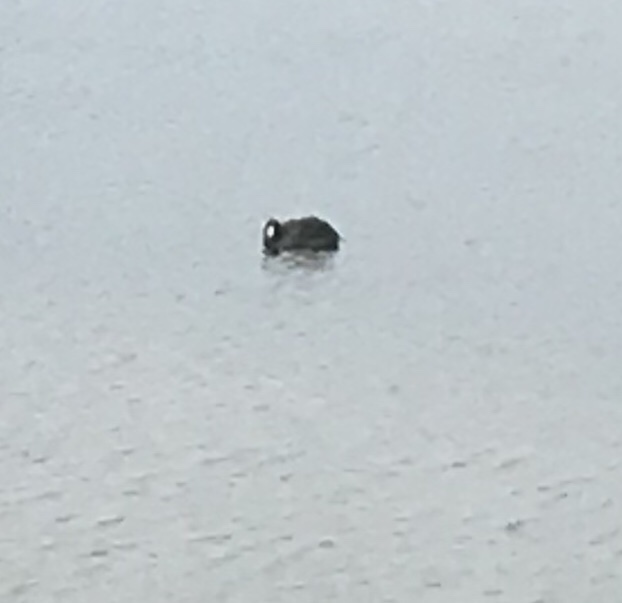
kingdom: Animalia
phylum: Chordata
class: Aves
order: Gruiformes
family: Rallidae
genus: Fulica
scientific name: Fulica americana
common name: American coot
